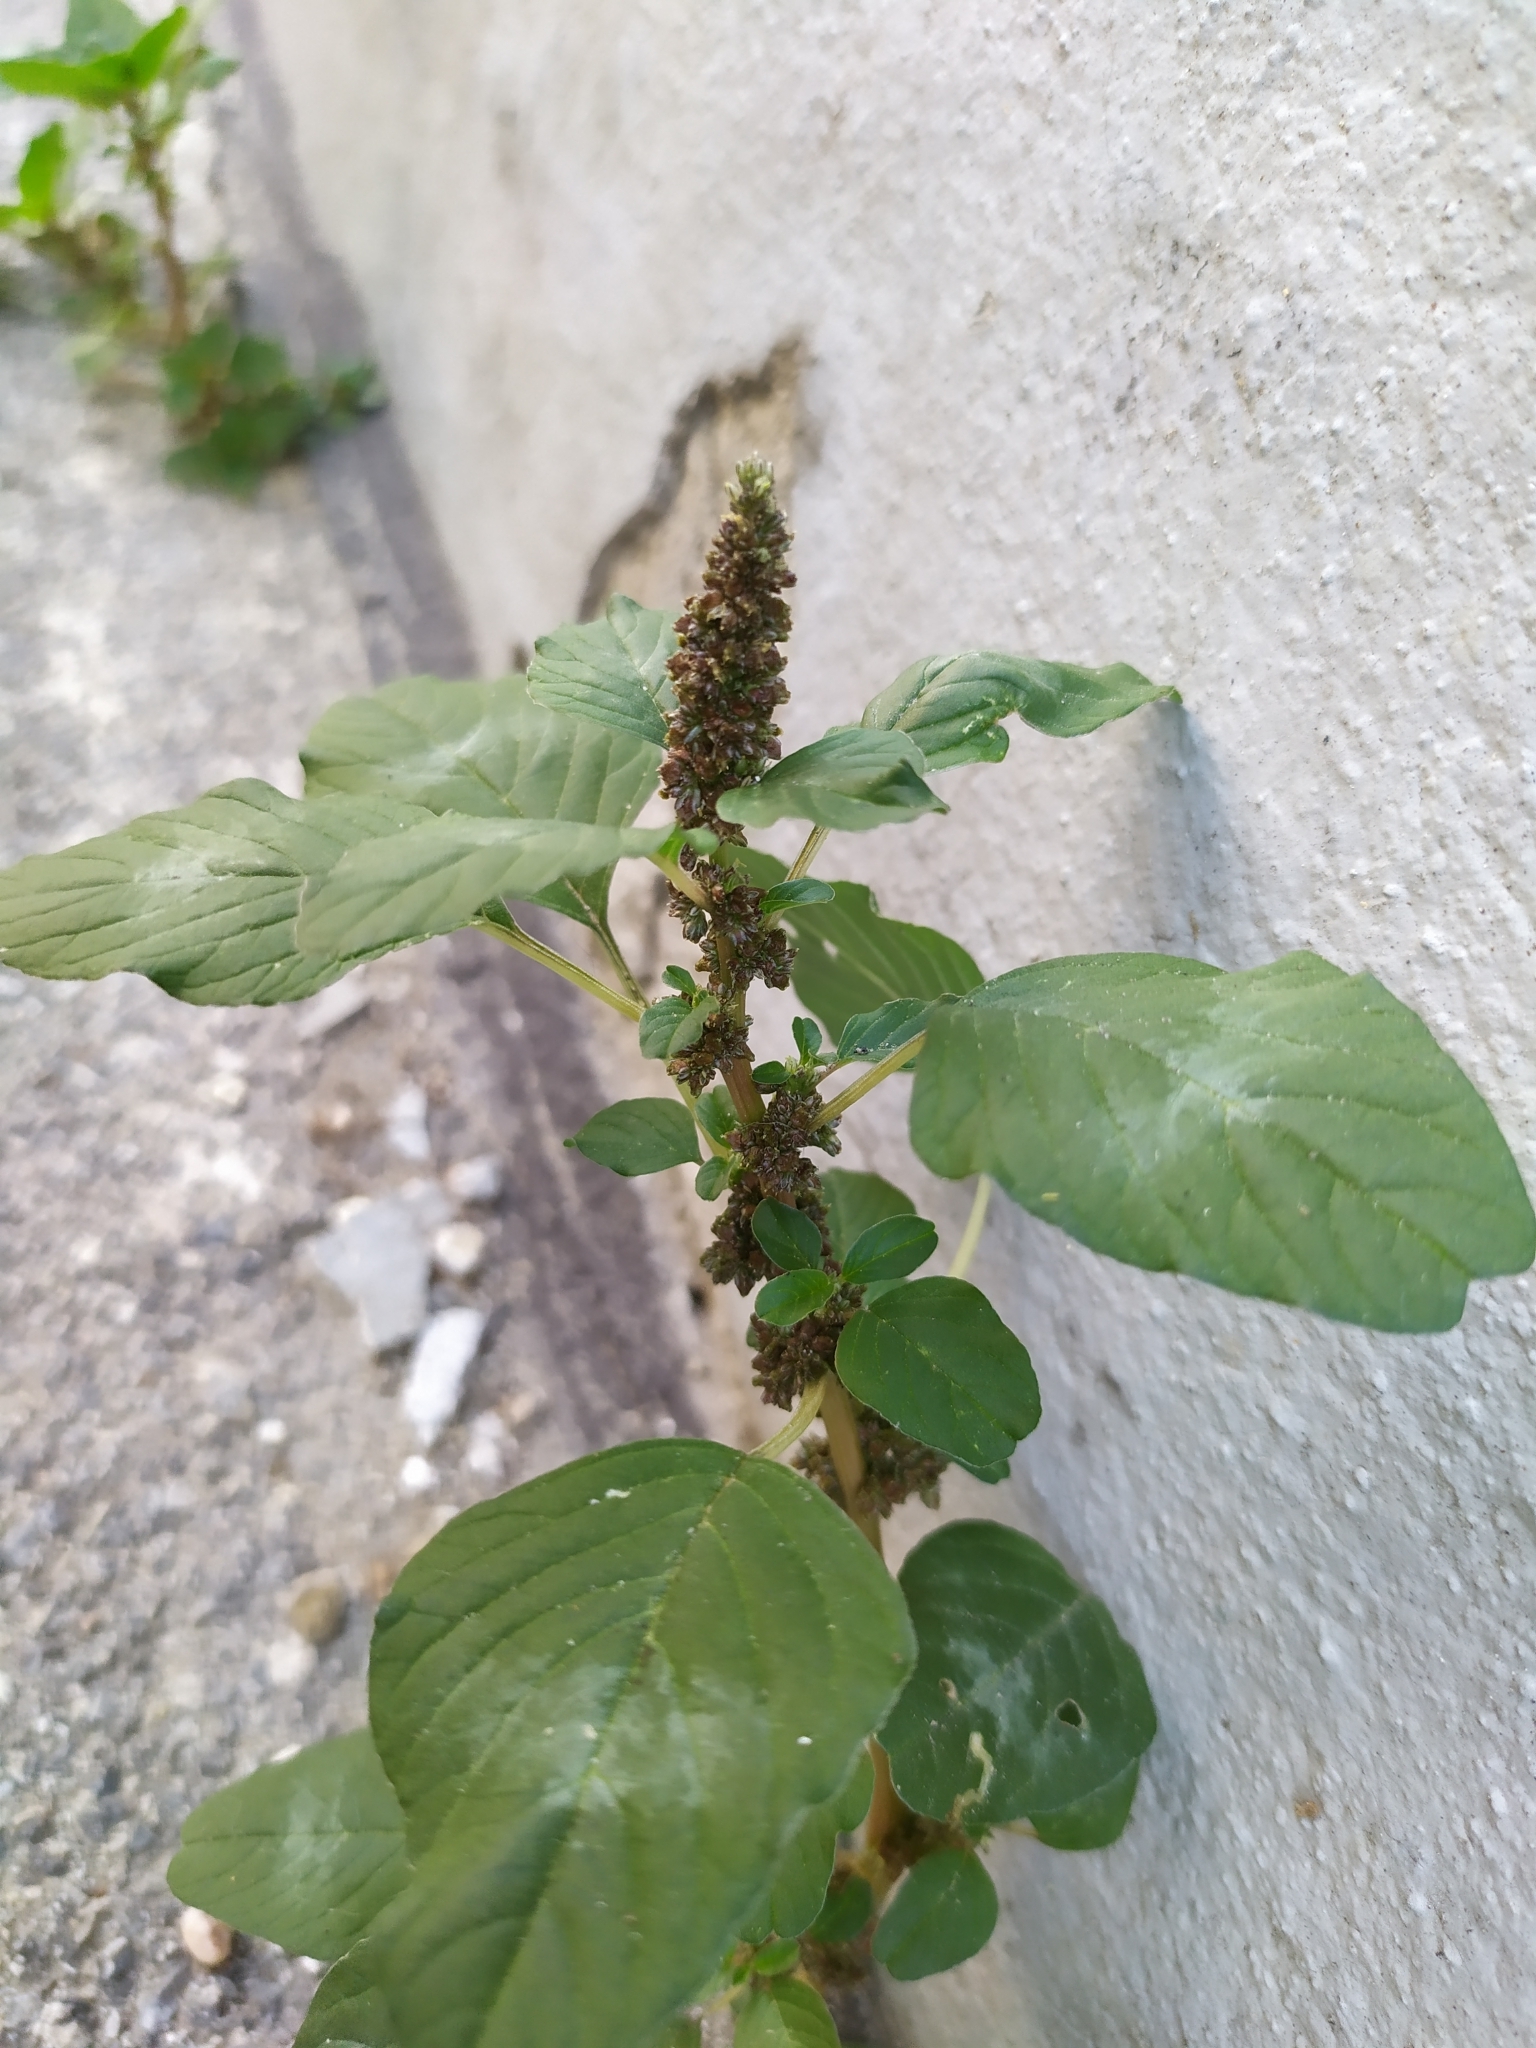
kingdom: Plantae
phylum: Tracheophyta
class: Magnoliopsida
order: Caryophyllales
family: Amaranthaceae
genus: Amaranthus
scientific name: Amaranthus blitum
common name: Purple amaranth
